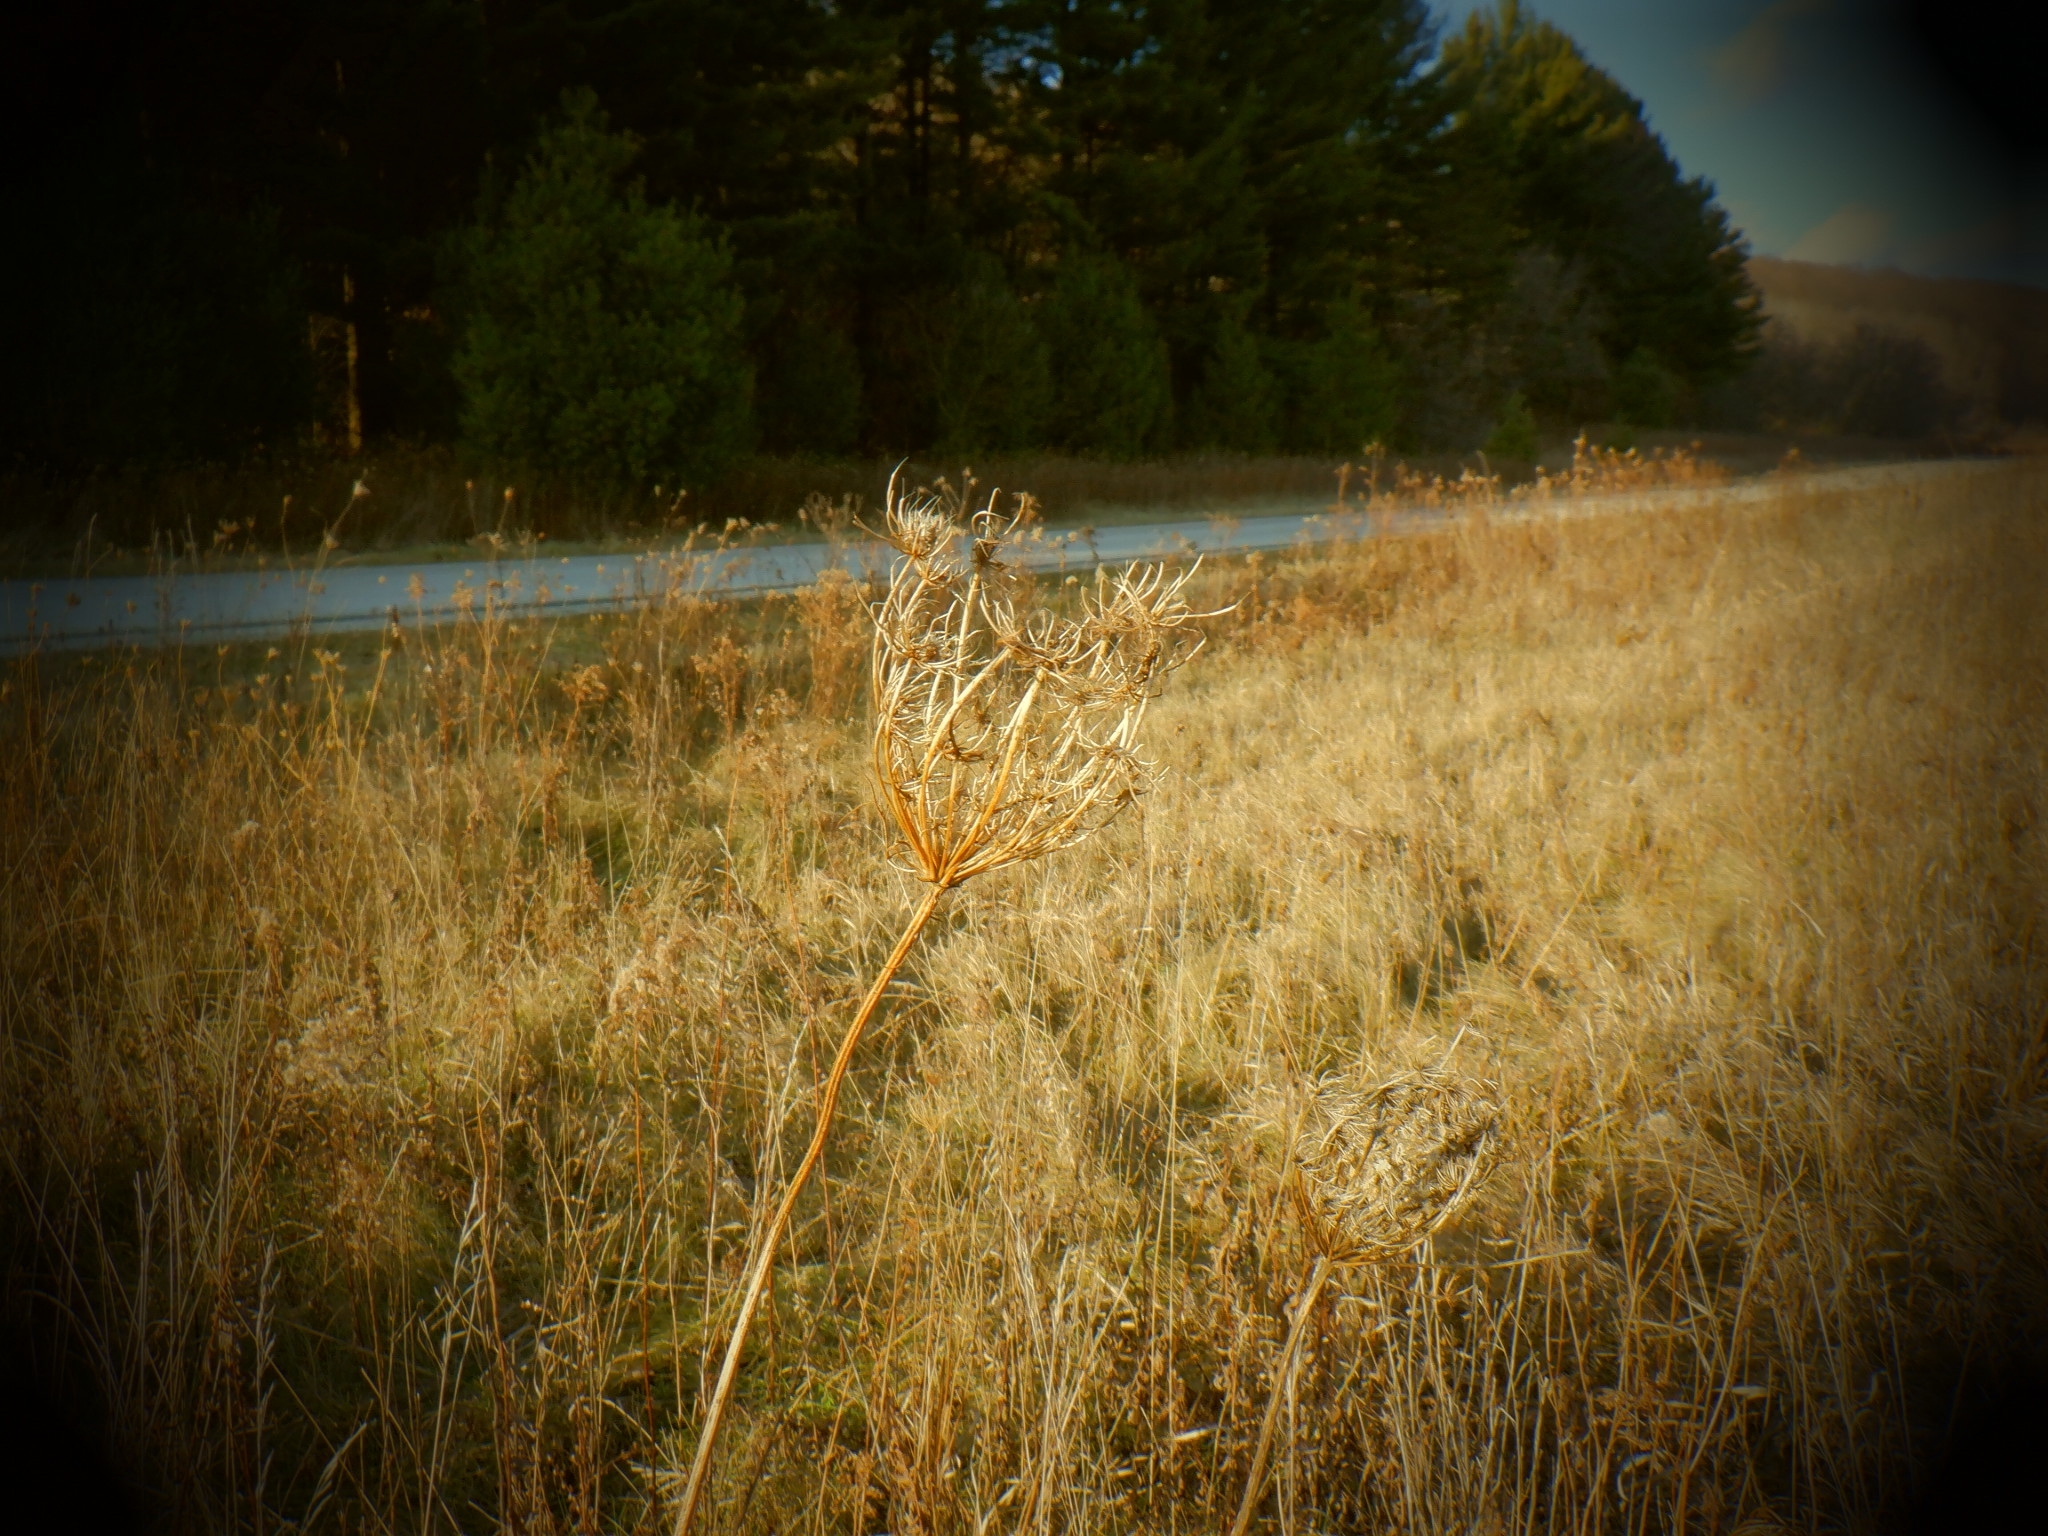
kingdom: Plantae
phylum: Tracheophyta
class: Magnoliopsida
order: Apiales
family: Apiaceae
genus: Daucus
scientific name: Daucus carota
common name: Wild carrot
